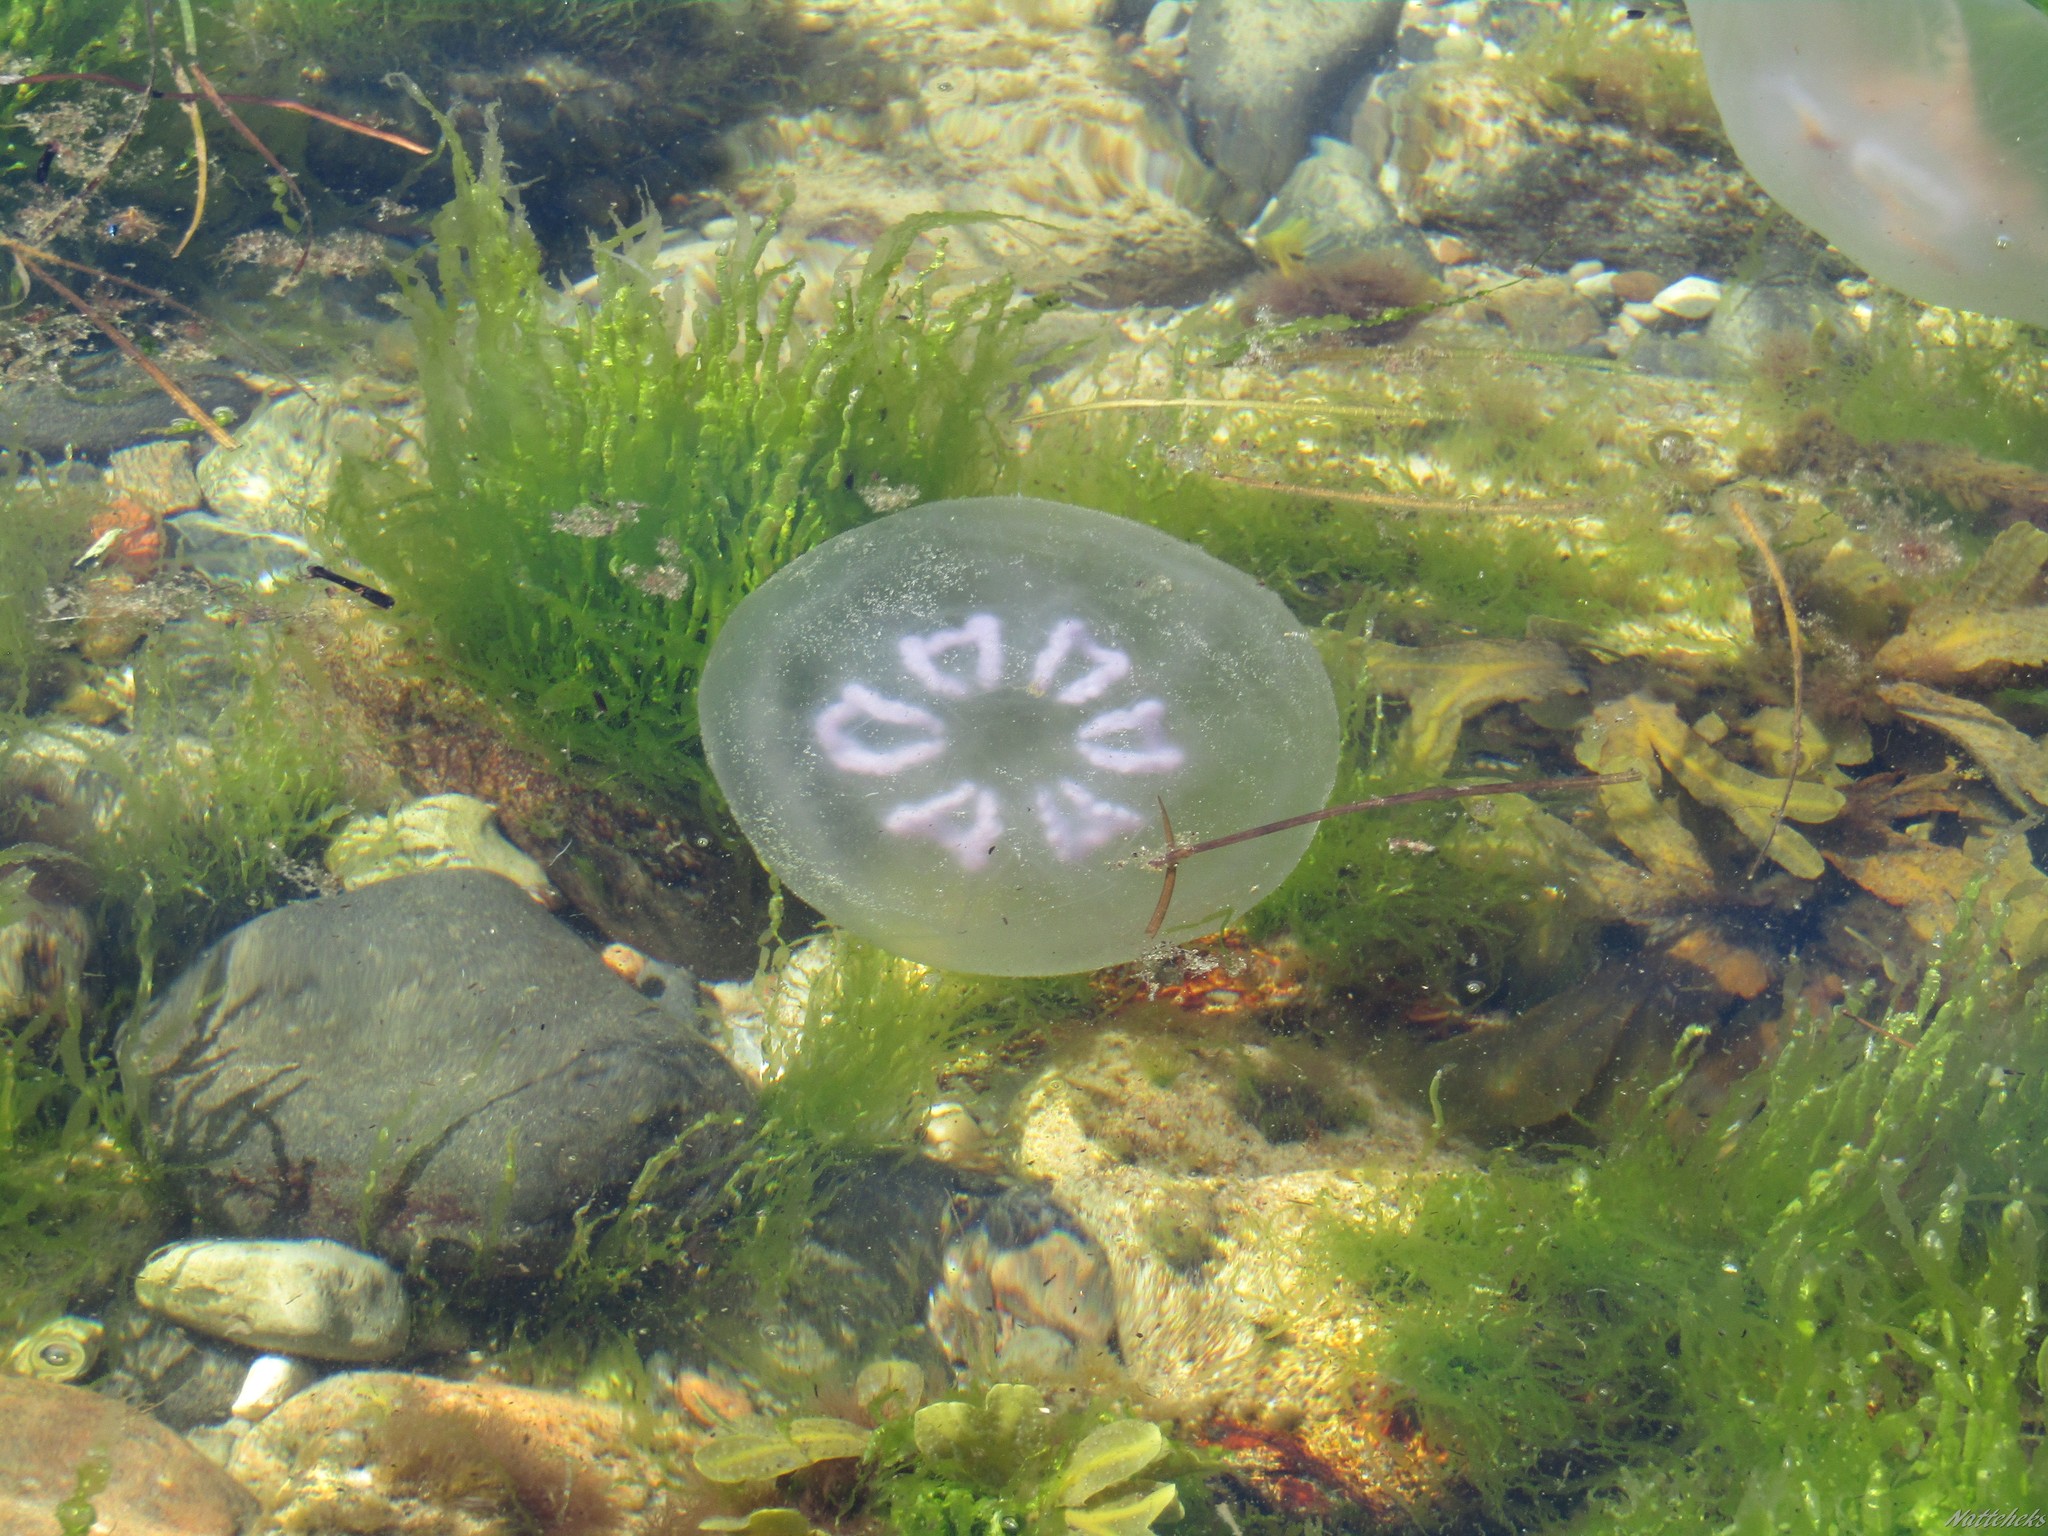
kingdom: Animalia
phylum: Cnidaria
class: Scyphozoa
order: Semaeostomeae
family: Ulmaridae
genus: Aurelia
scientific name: Aurelia aurita
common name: Moon jellyfish
